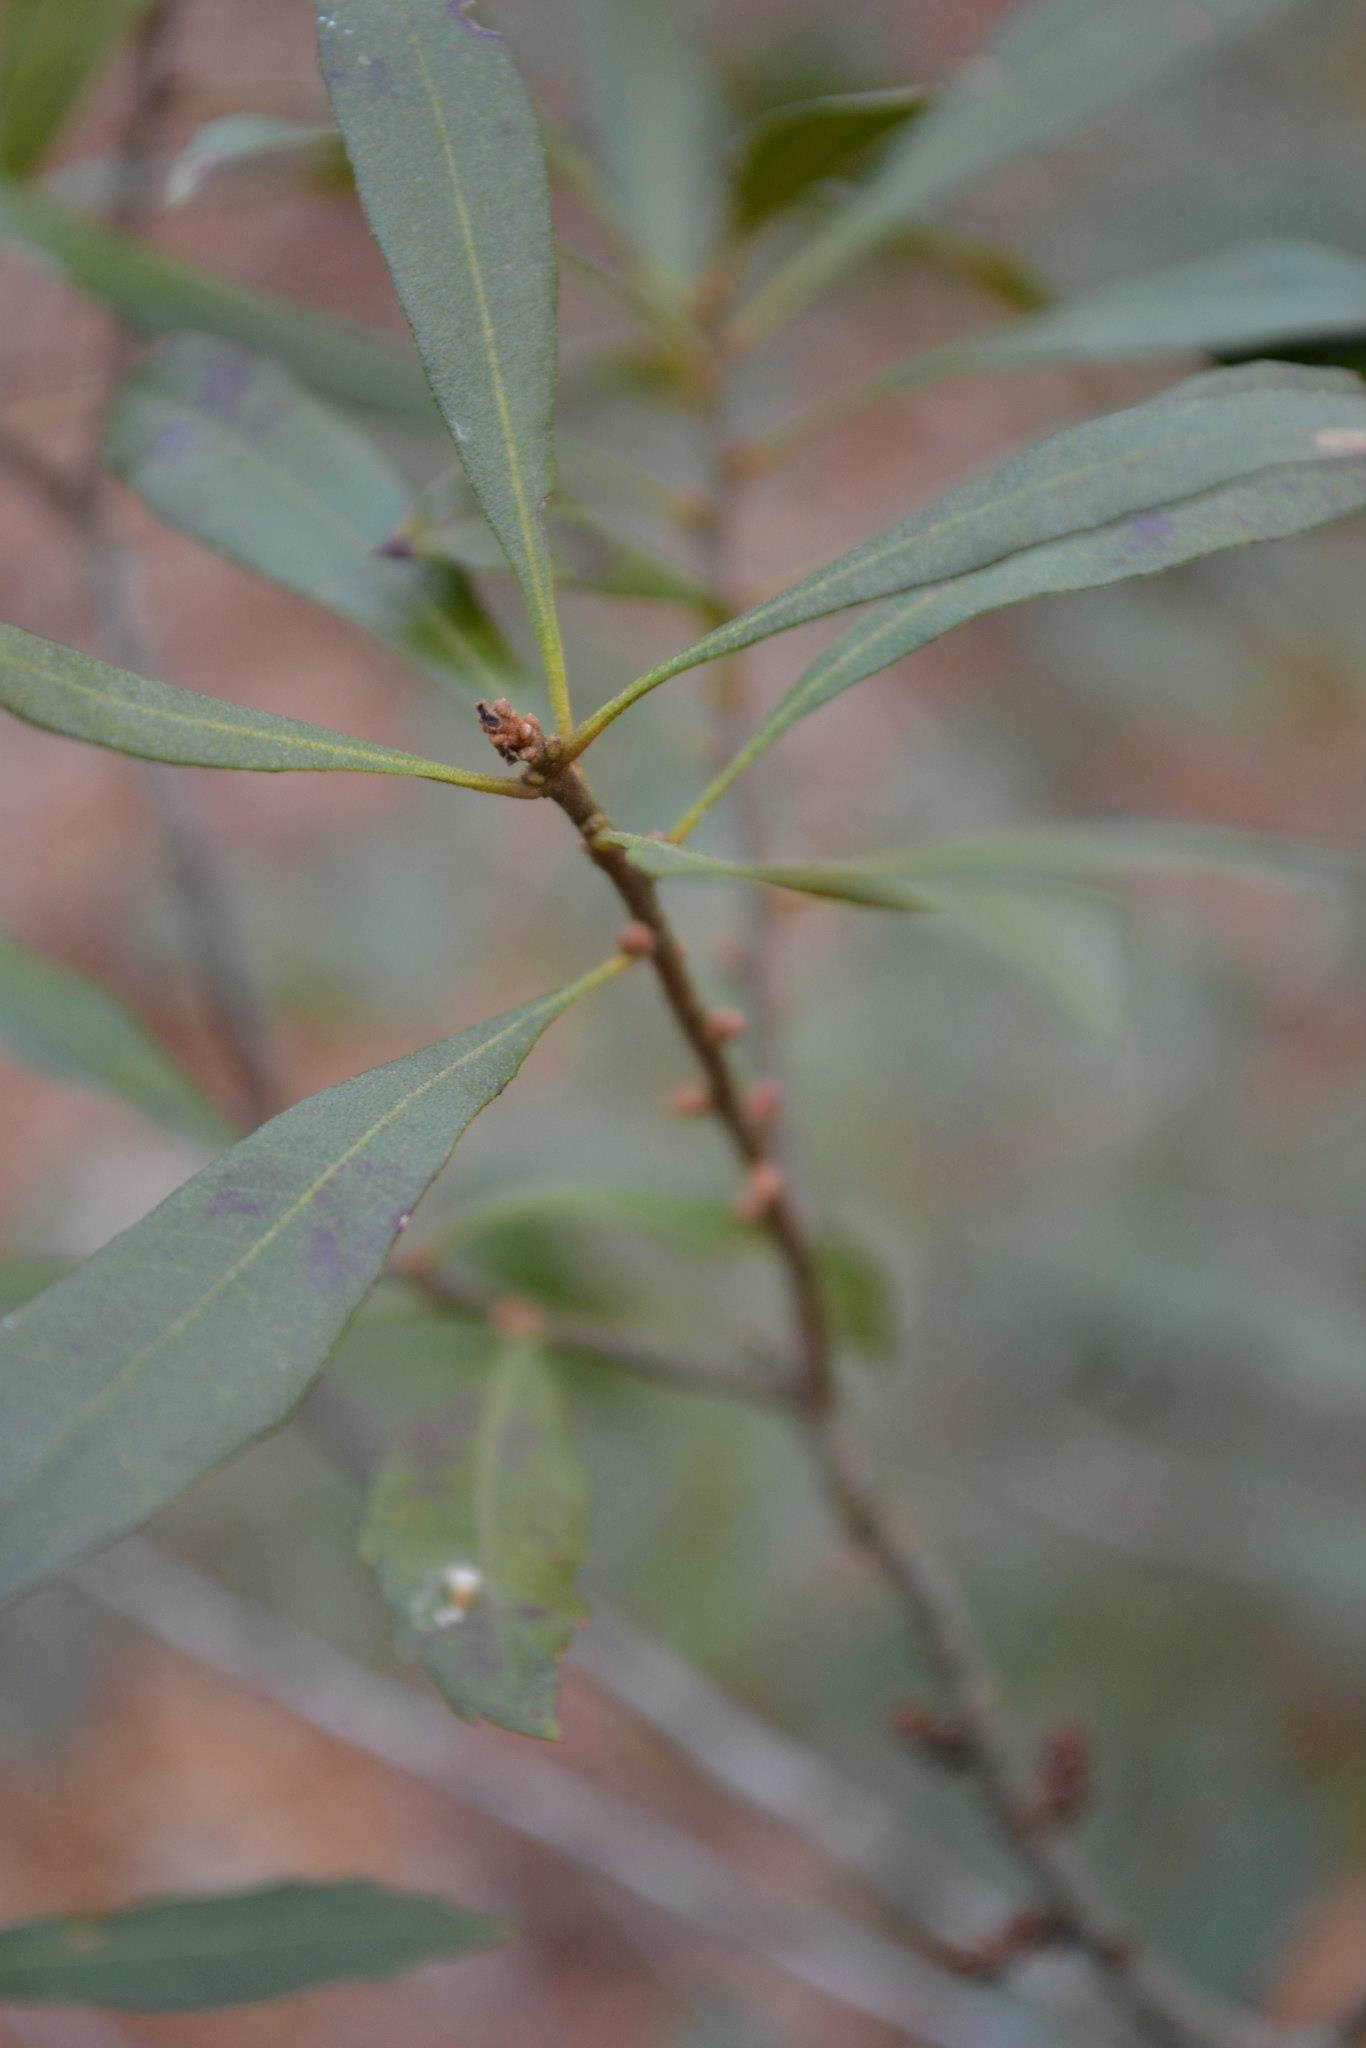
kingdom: Plantae
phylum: Tracheophyta
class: Magnoliopsida
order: Fagales
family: Myricaceae
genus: Morella
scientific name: Morella cerifera
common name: Wax myrtle
